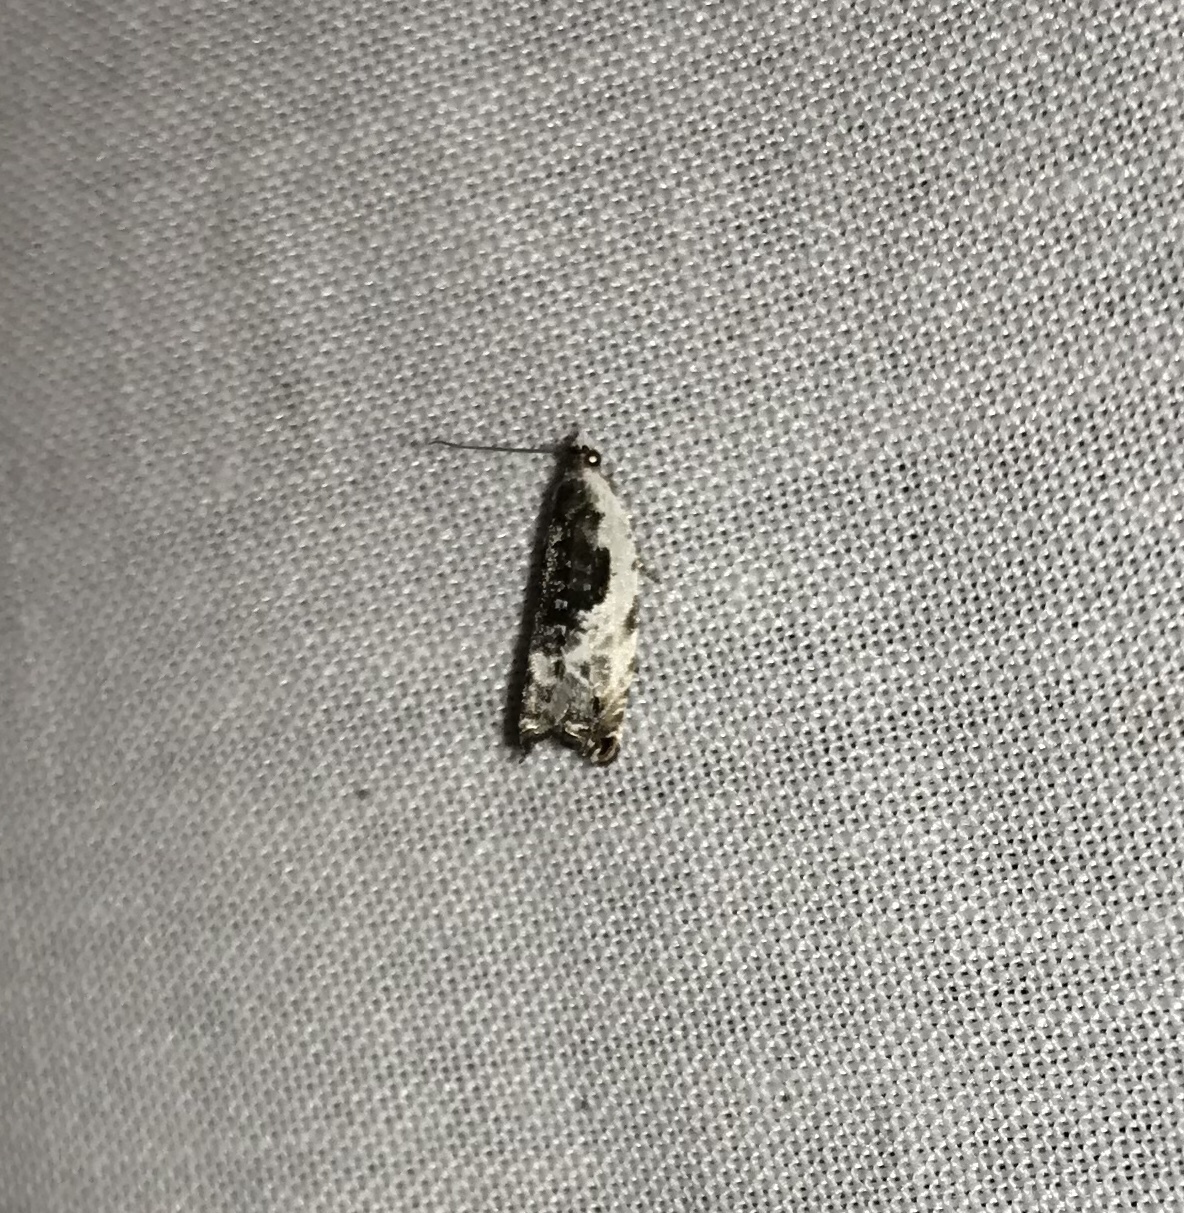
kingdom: Animalia
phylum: Arthropoda
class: Insecta
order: Lepidoptera
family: Tortricidae
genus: Ancylis
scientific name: Ancylis nubeculana
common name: Little cloud ancylis moth
